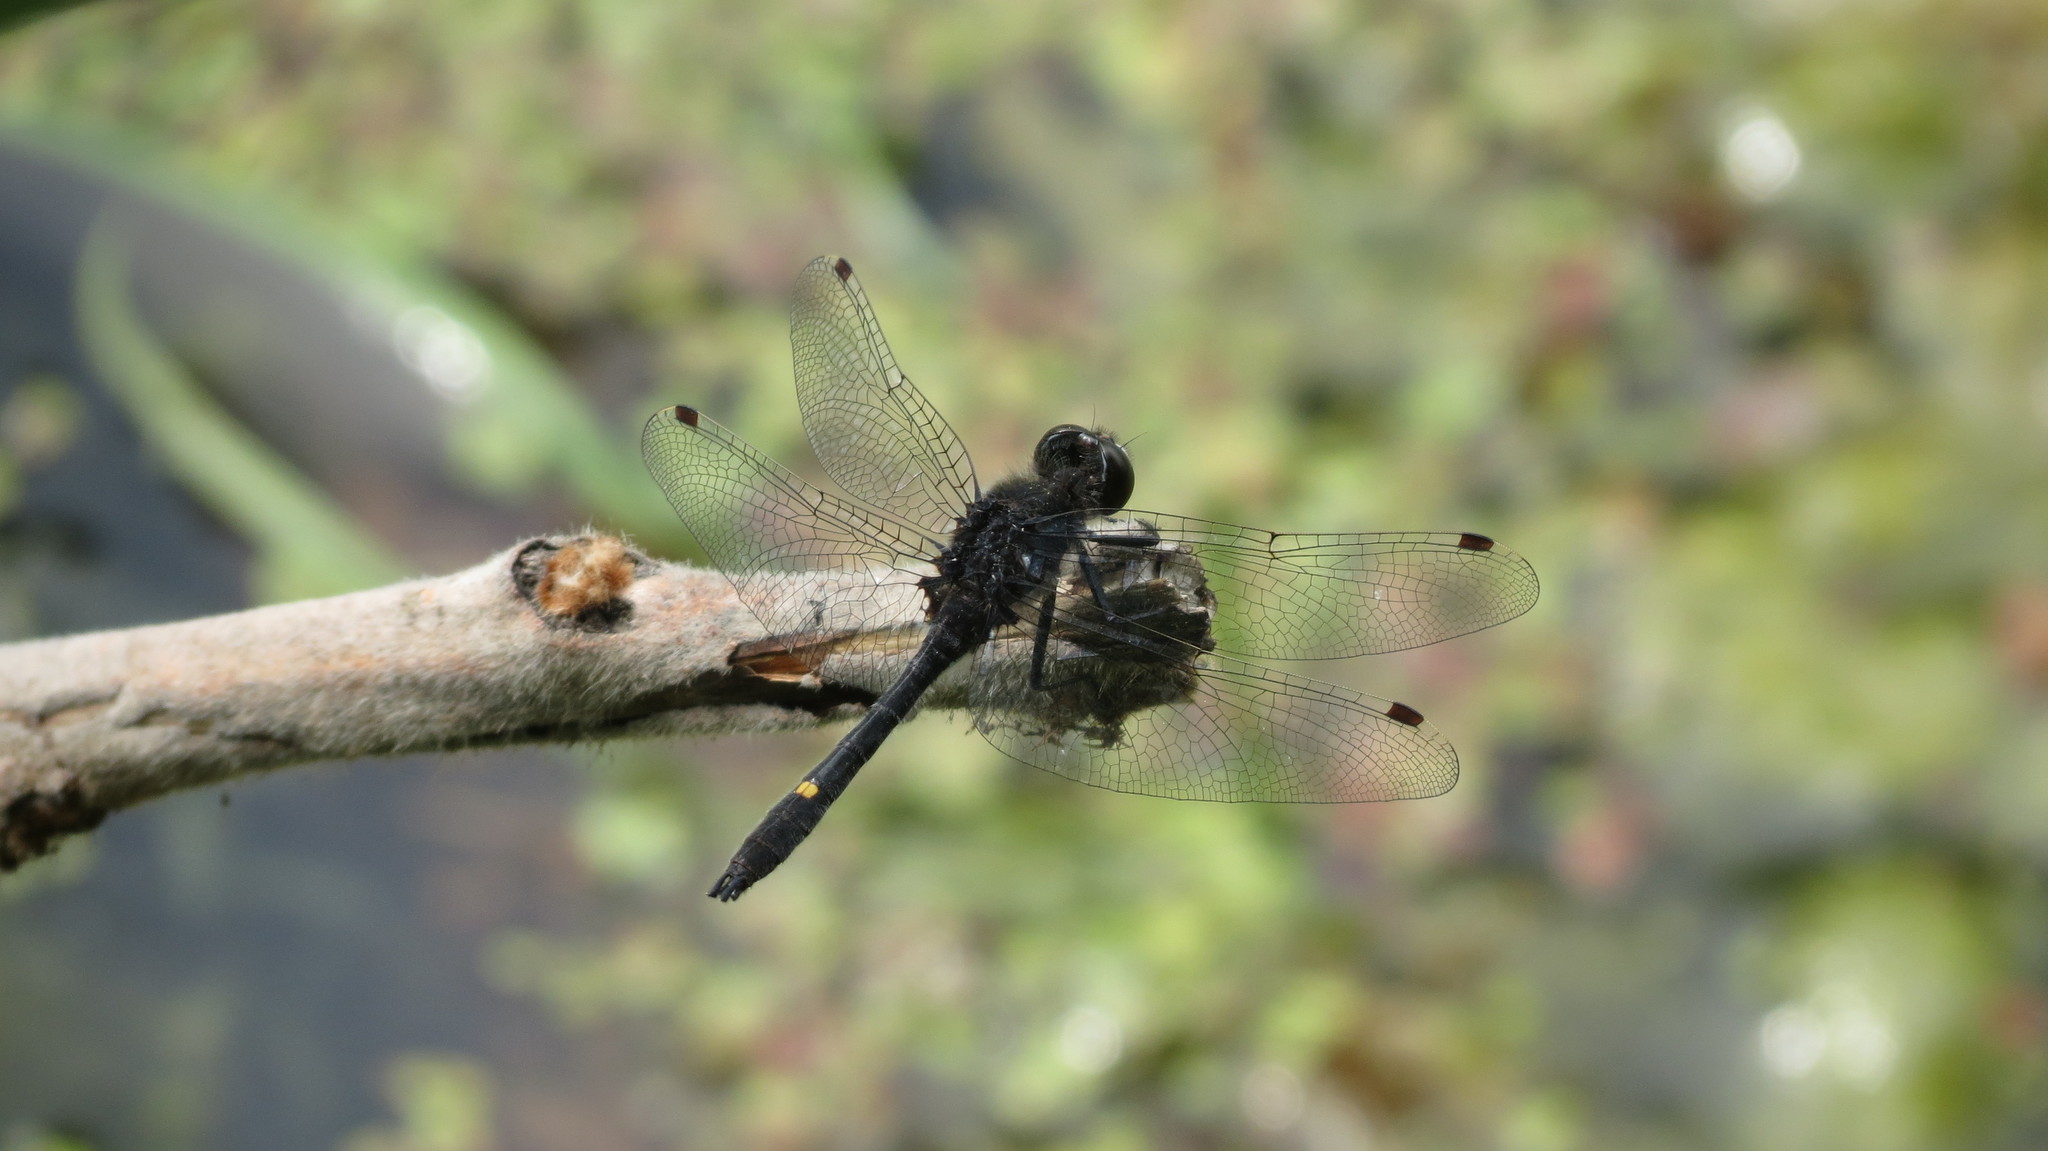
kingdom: Animalia
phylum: Arthropoda
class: Insecta
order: Odonata
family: Libellulidae
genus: Leucorrhinia
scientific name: Leucorrhinia intacta
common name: Dot-tailed whiteface
